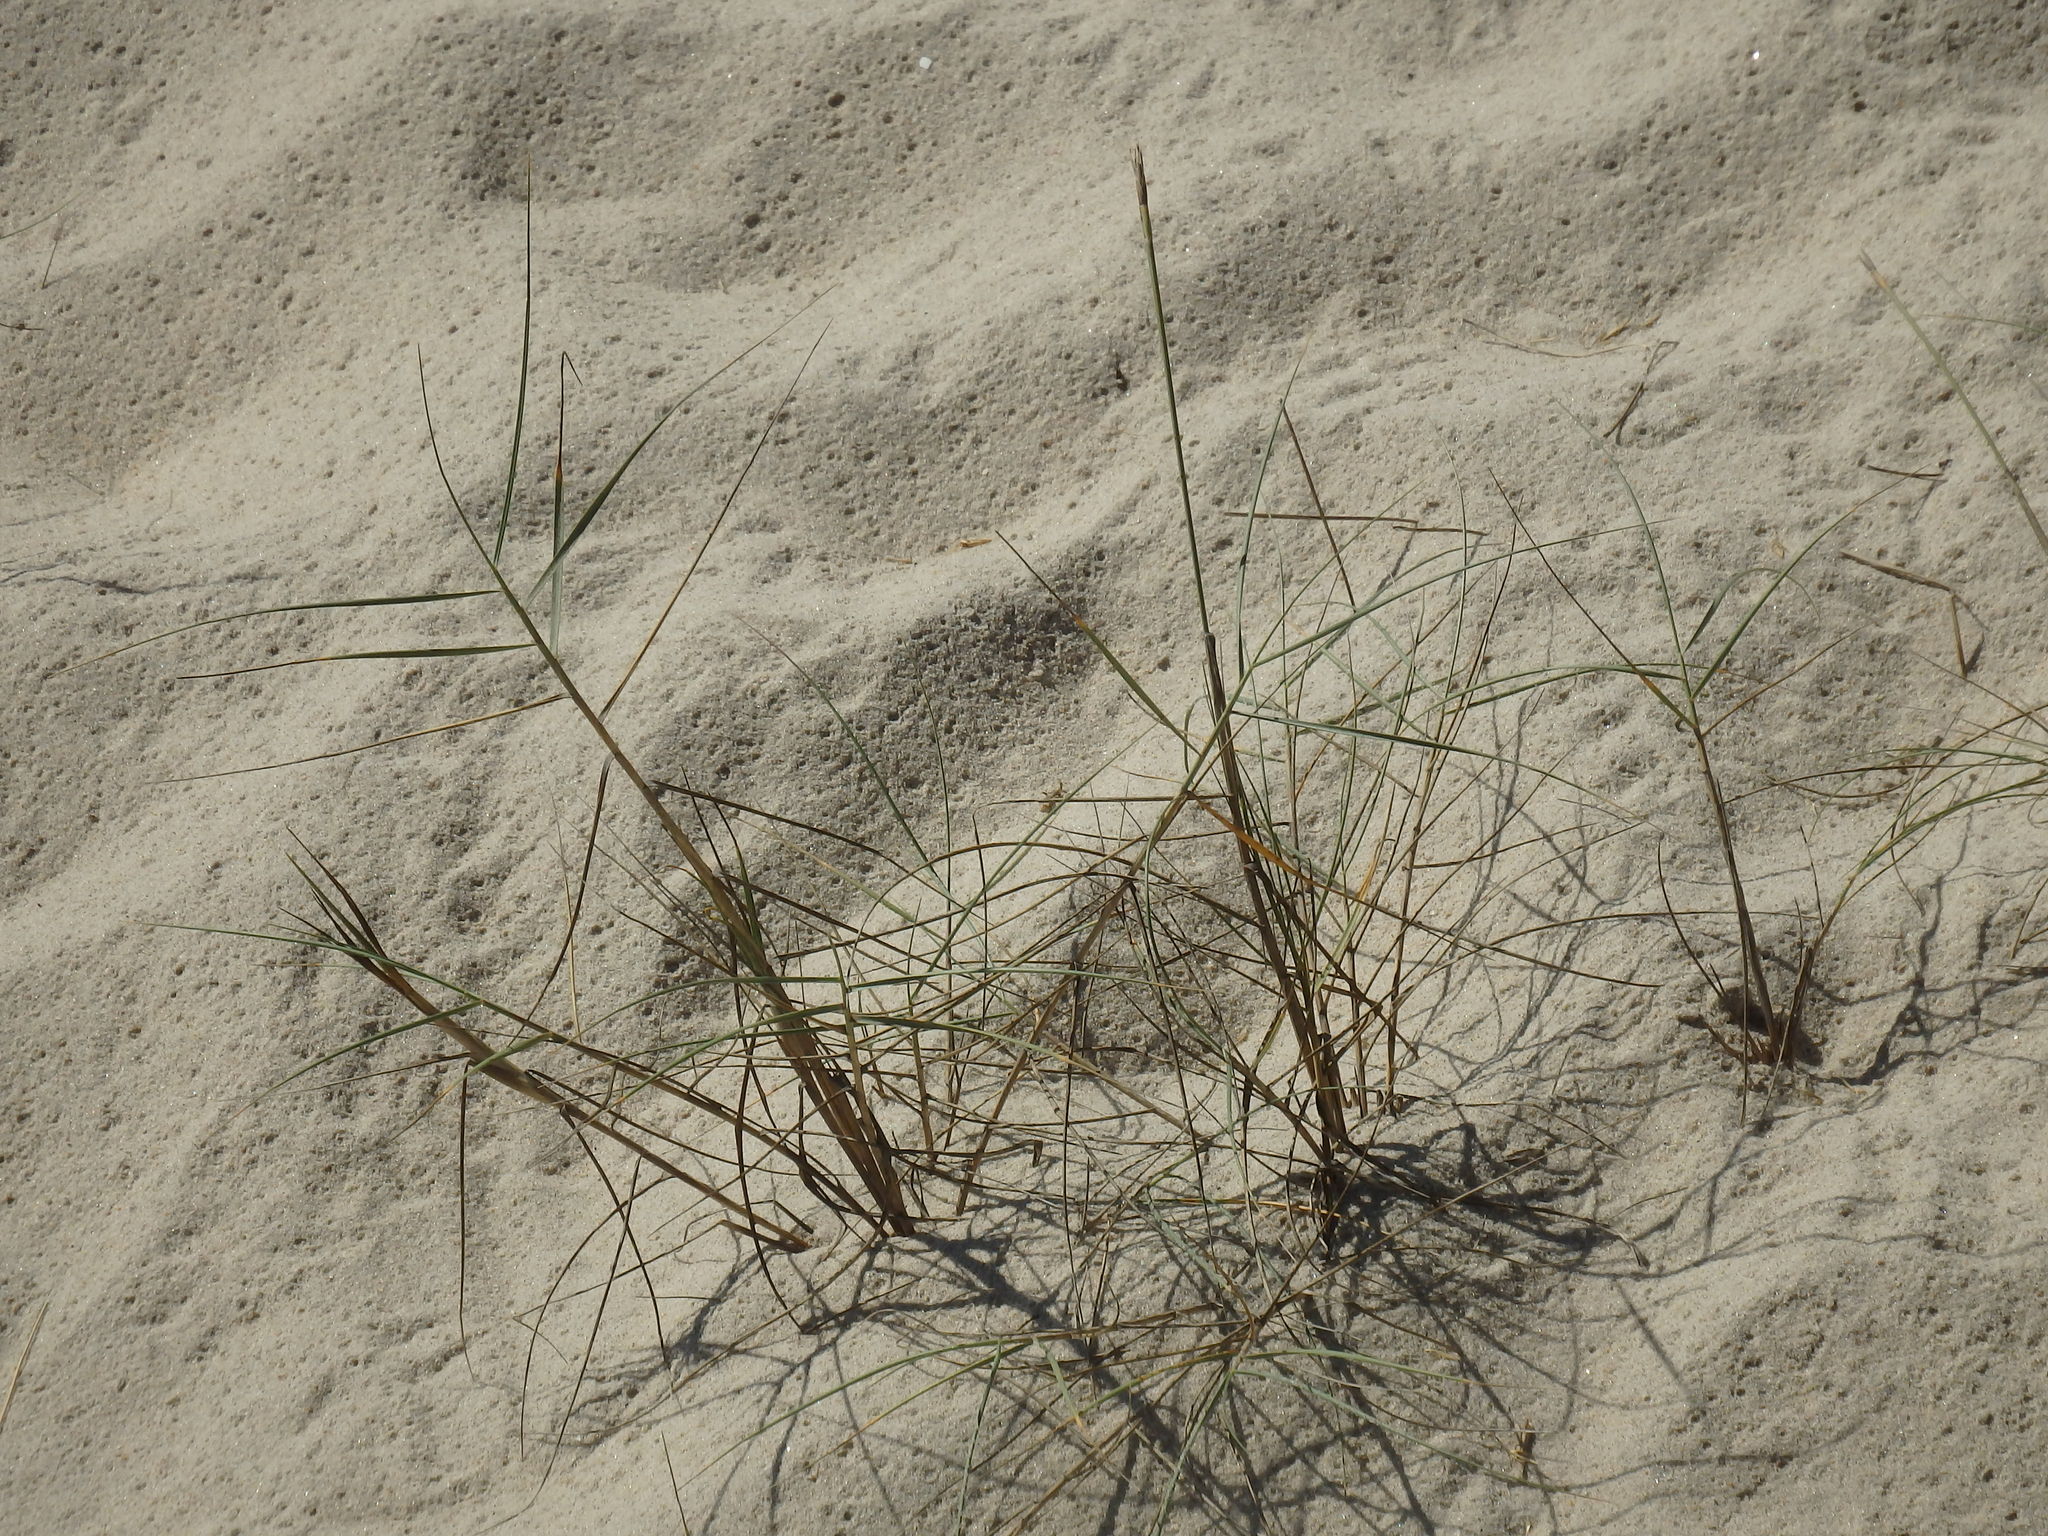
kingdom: Plantae
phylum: Tracheophyta
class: Liliopsida
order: Poales
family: Poaceae
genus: Thinopyrum
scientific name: Thinopyrum junceiforme
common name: Sea couch
